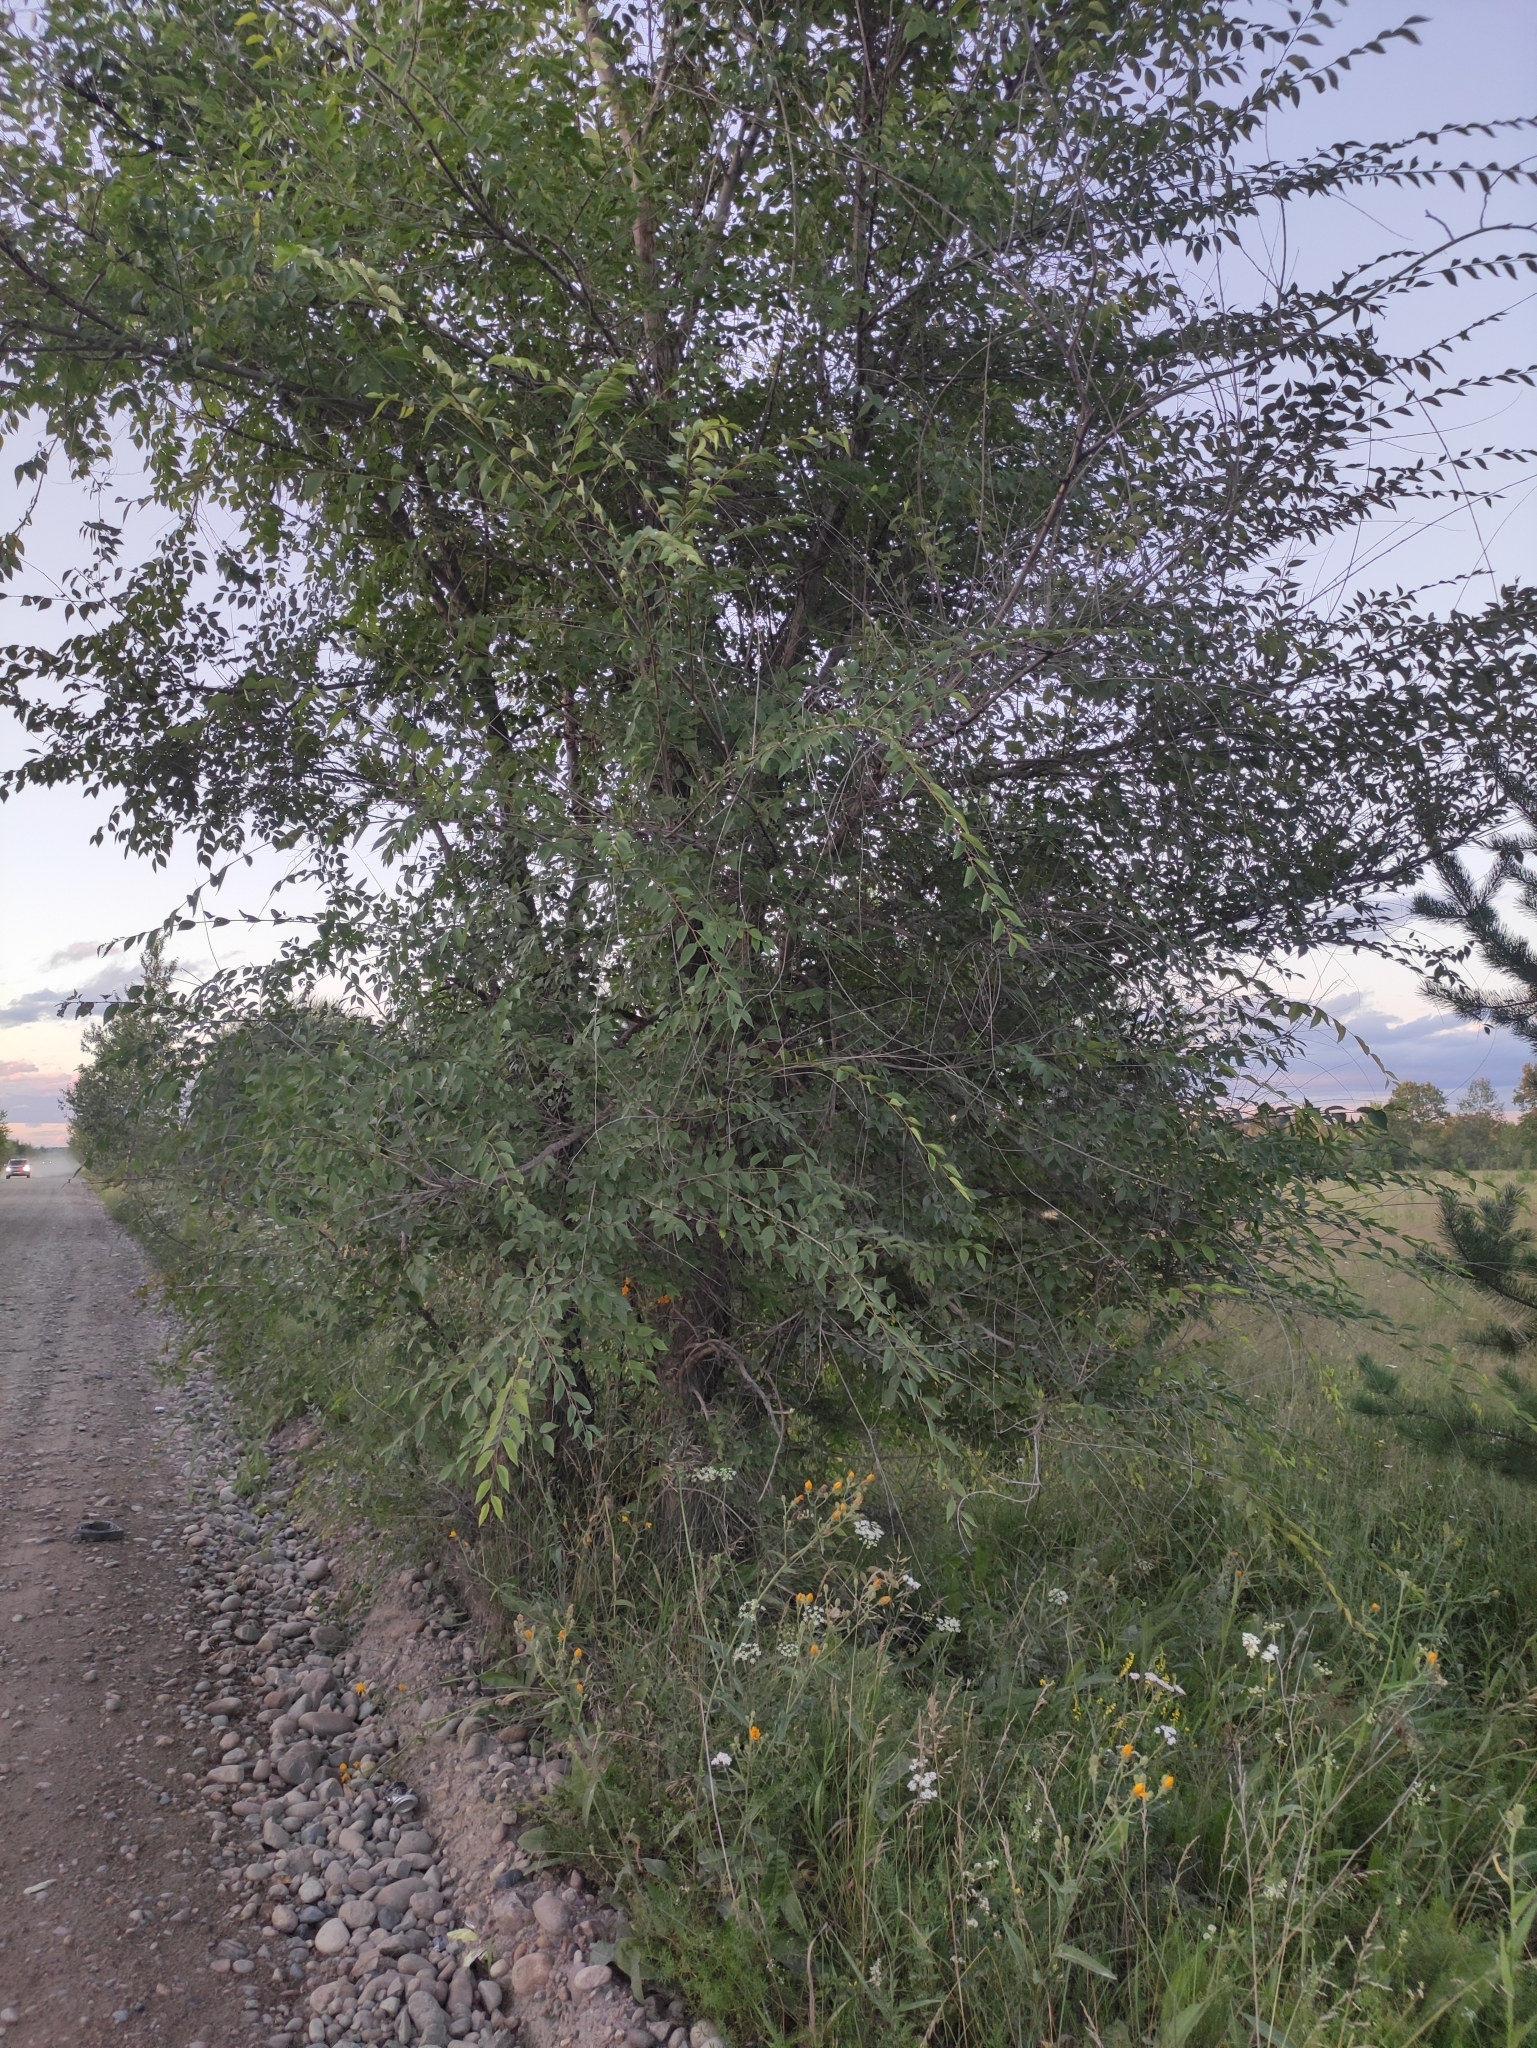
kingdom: Plantae
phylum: Tracheophyta
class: Magnoliopsida
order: Rosales
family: Ulmaceae
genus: Ulmus
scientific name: Ulmus pumila
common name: Siberian elm
